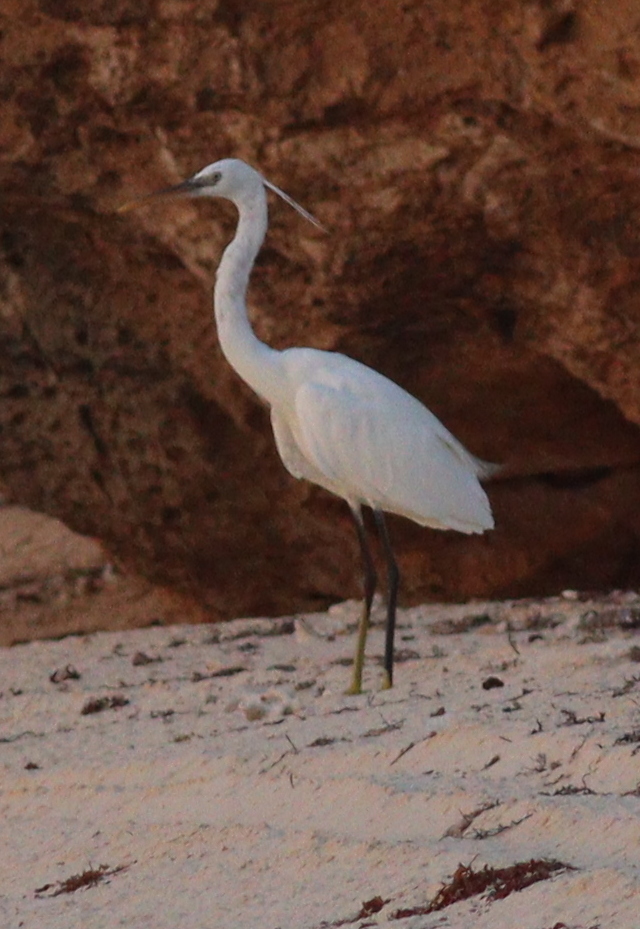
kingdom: Animalia
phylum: Chordata
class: Aves
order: Pelecaniformes
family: Ardeidae
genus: Egretta
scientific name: Egretta gularis
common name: Western reef-heron
